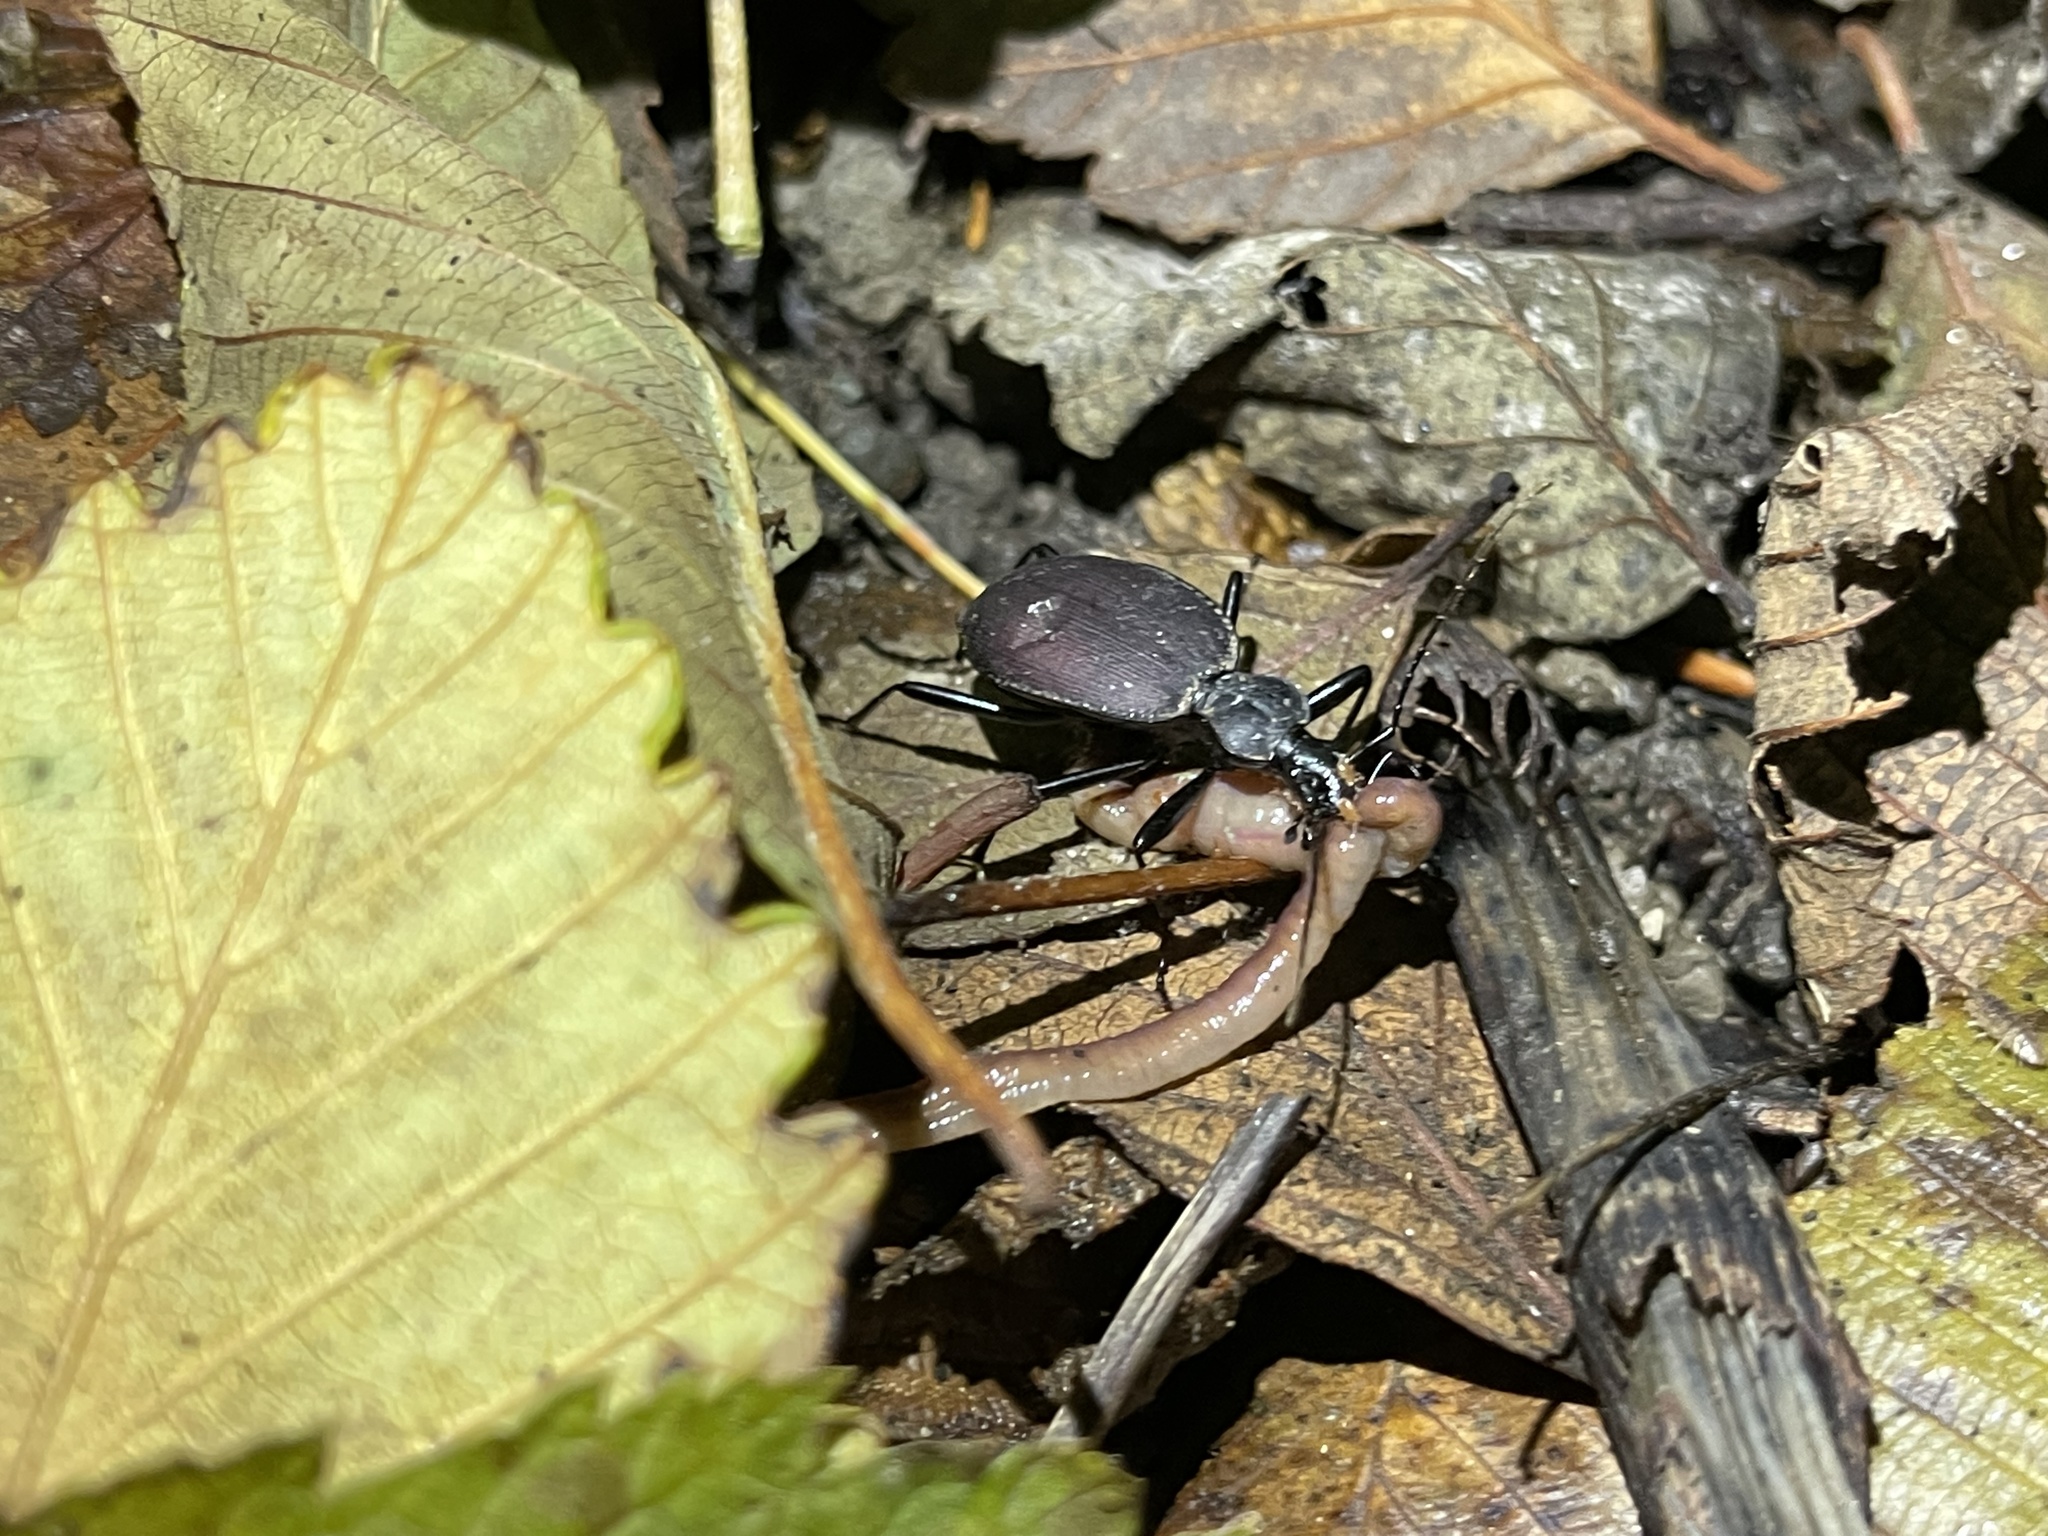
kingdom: Animalia
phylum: Arthropoda
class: Insecta
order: Coleoptera
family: Carabidae
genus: Scaphinotus
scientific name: Scaphinotus angusticollis
